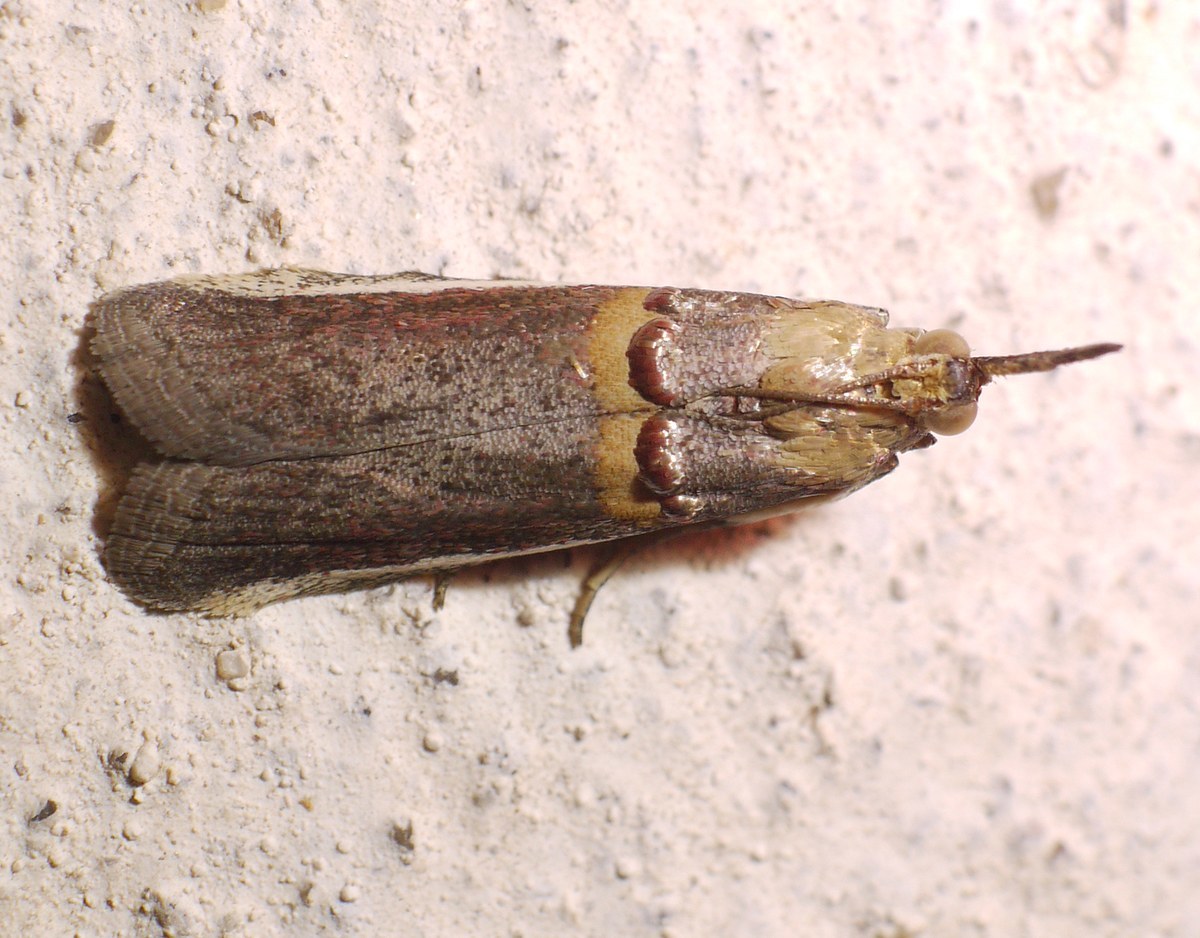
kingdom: Animalia
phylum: Arthropoda
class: Insecta
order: Lepidoptera
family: Pyralidae
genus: Etiella
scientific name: Etiella zinckenella
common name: Gold-banded etiella moth
